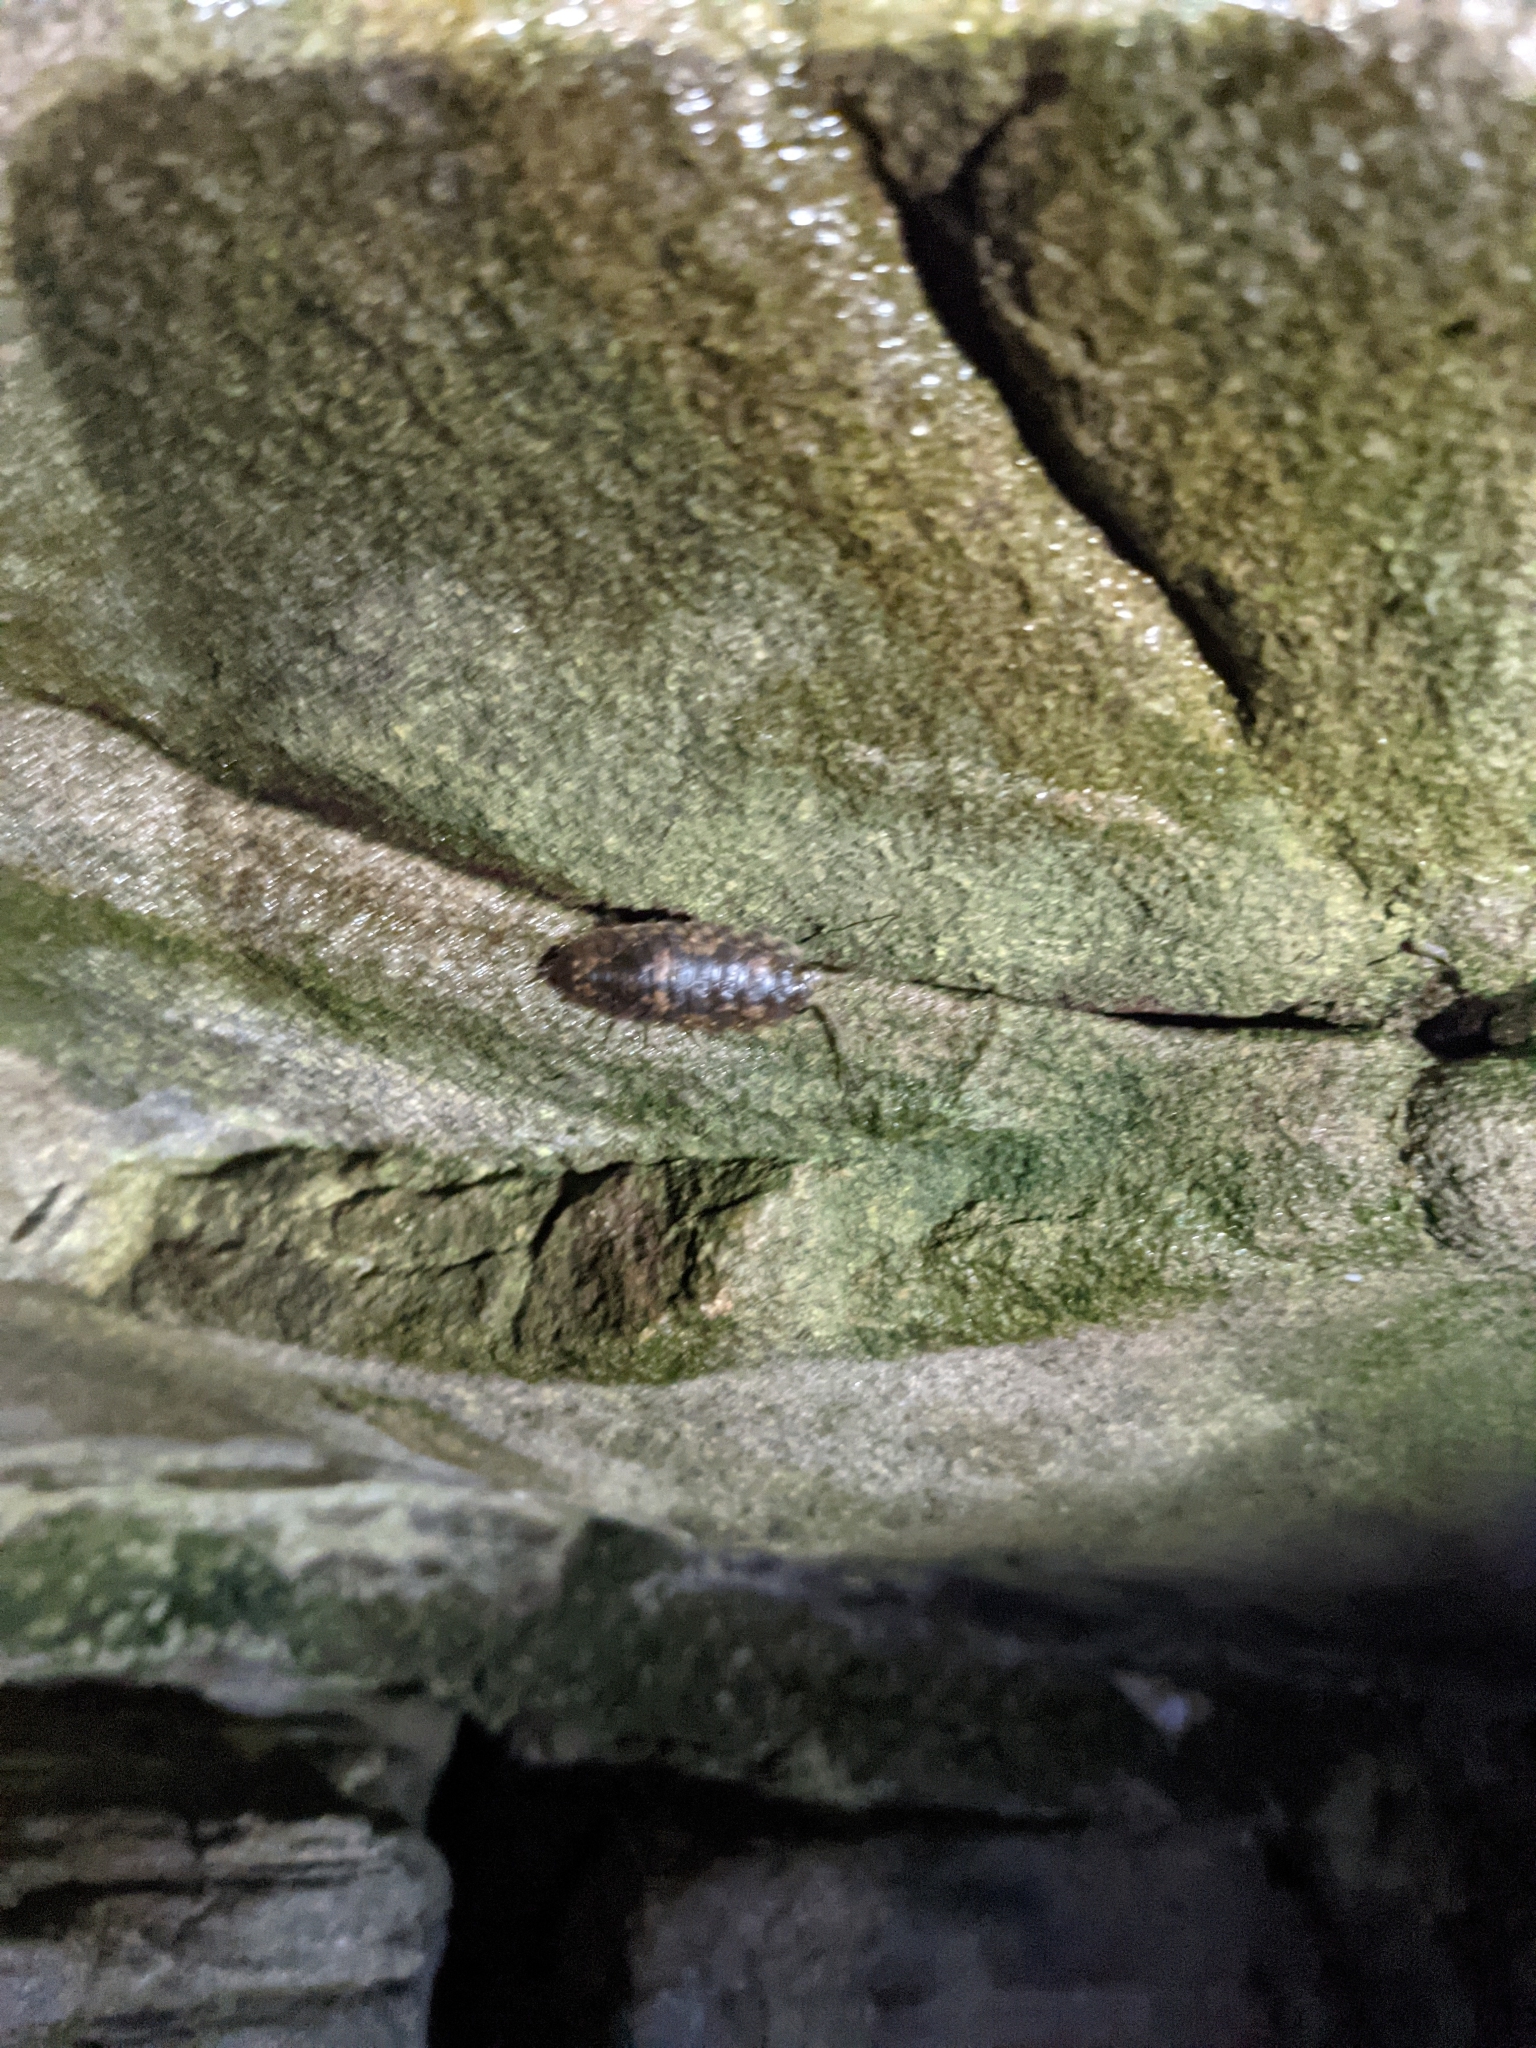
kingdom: Animalia
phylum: Arthropoda
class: Malacostraca
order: Isopoda
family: Ligiidae
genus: Ligia
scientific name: Ligia pallasii
